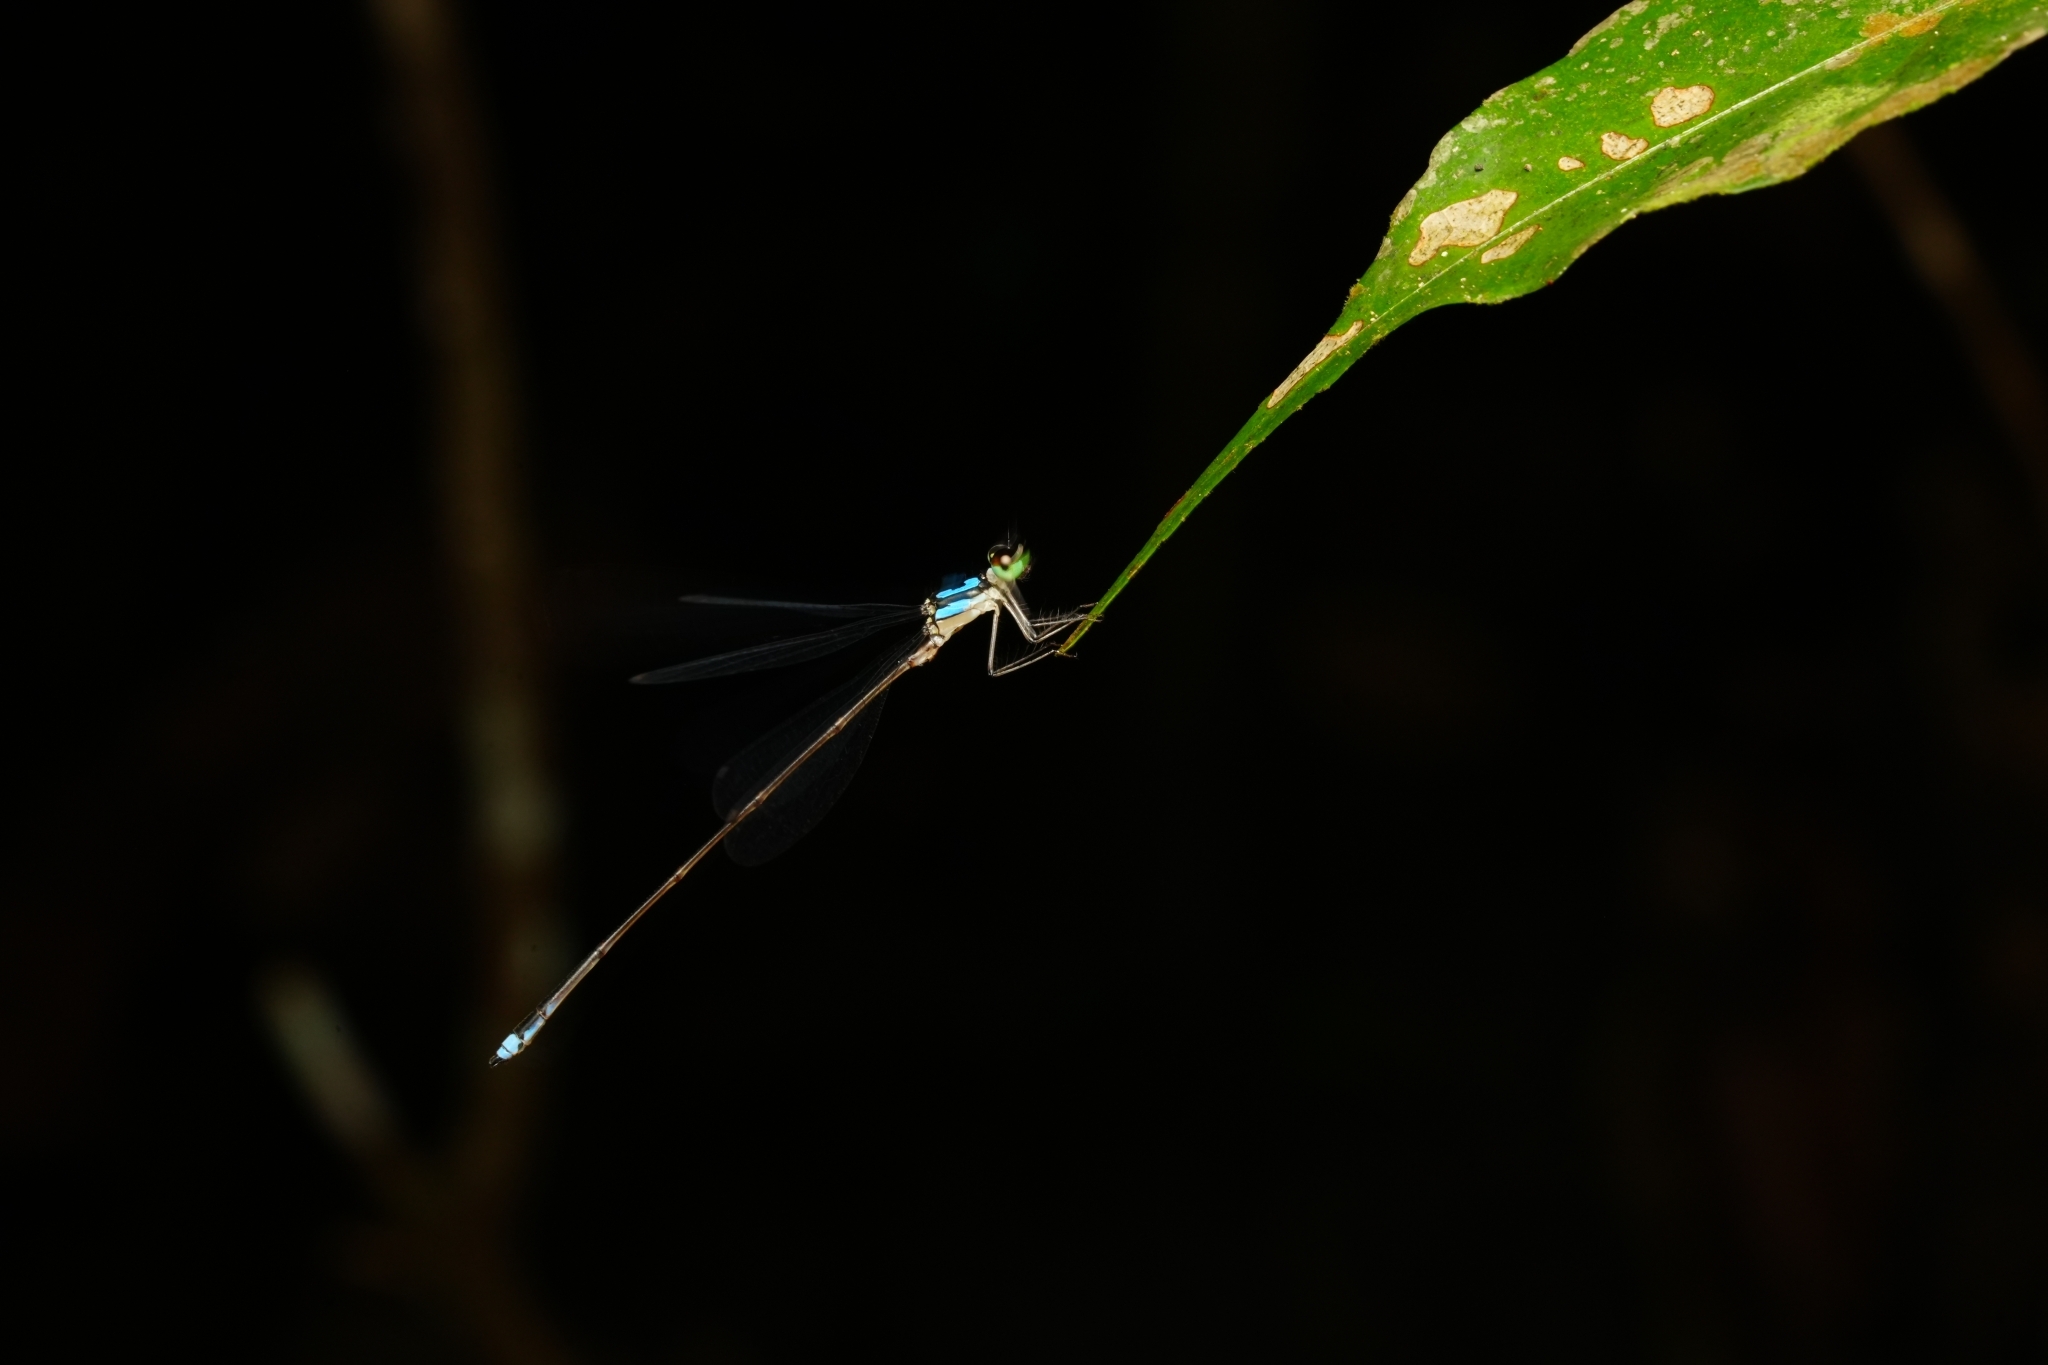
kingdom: Animalia
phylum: Arthropoda
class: Insecta
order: Odonata
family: Platycnemididae
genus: Coeliccia
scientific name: Coeliccia octogesima
